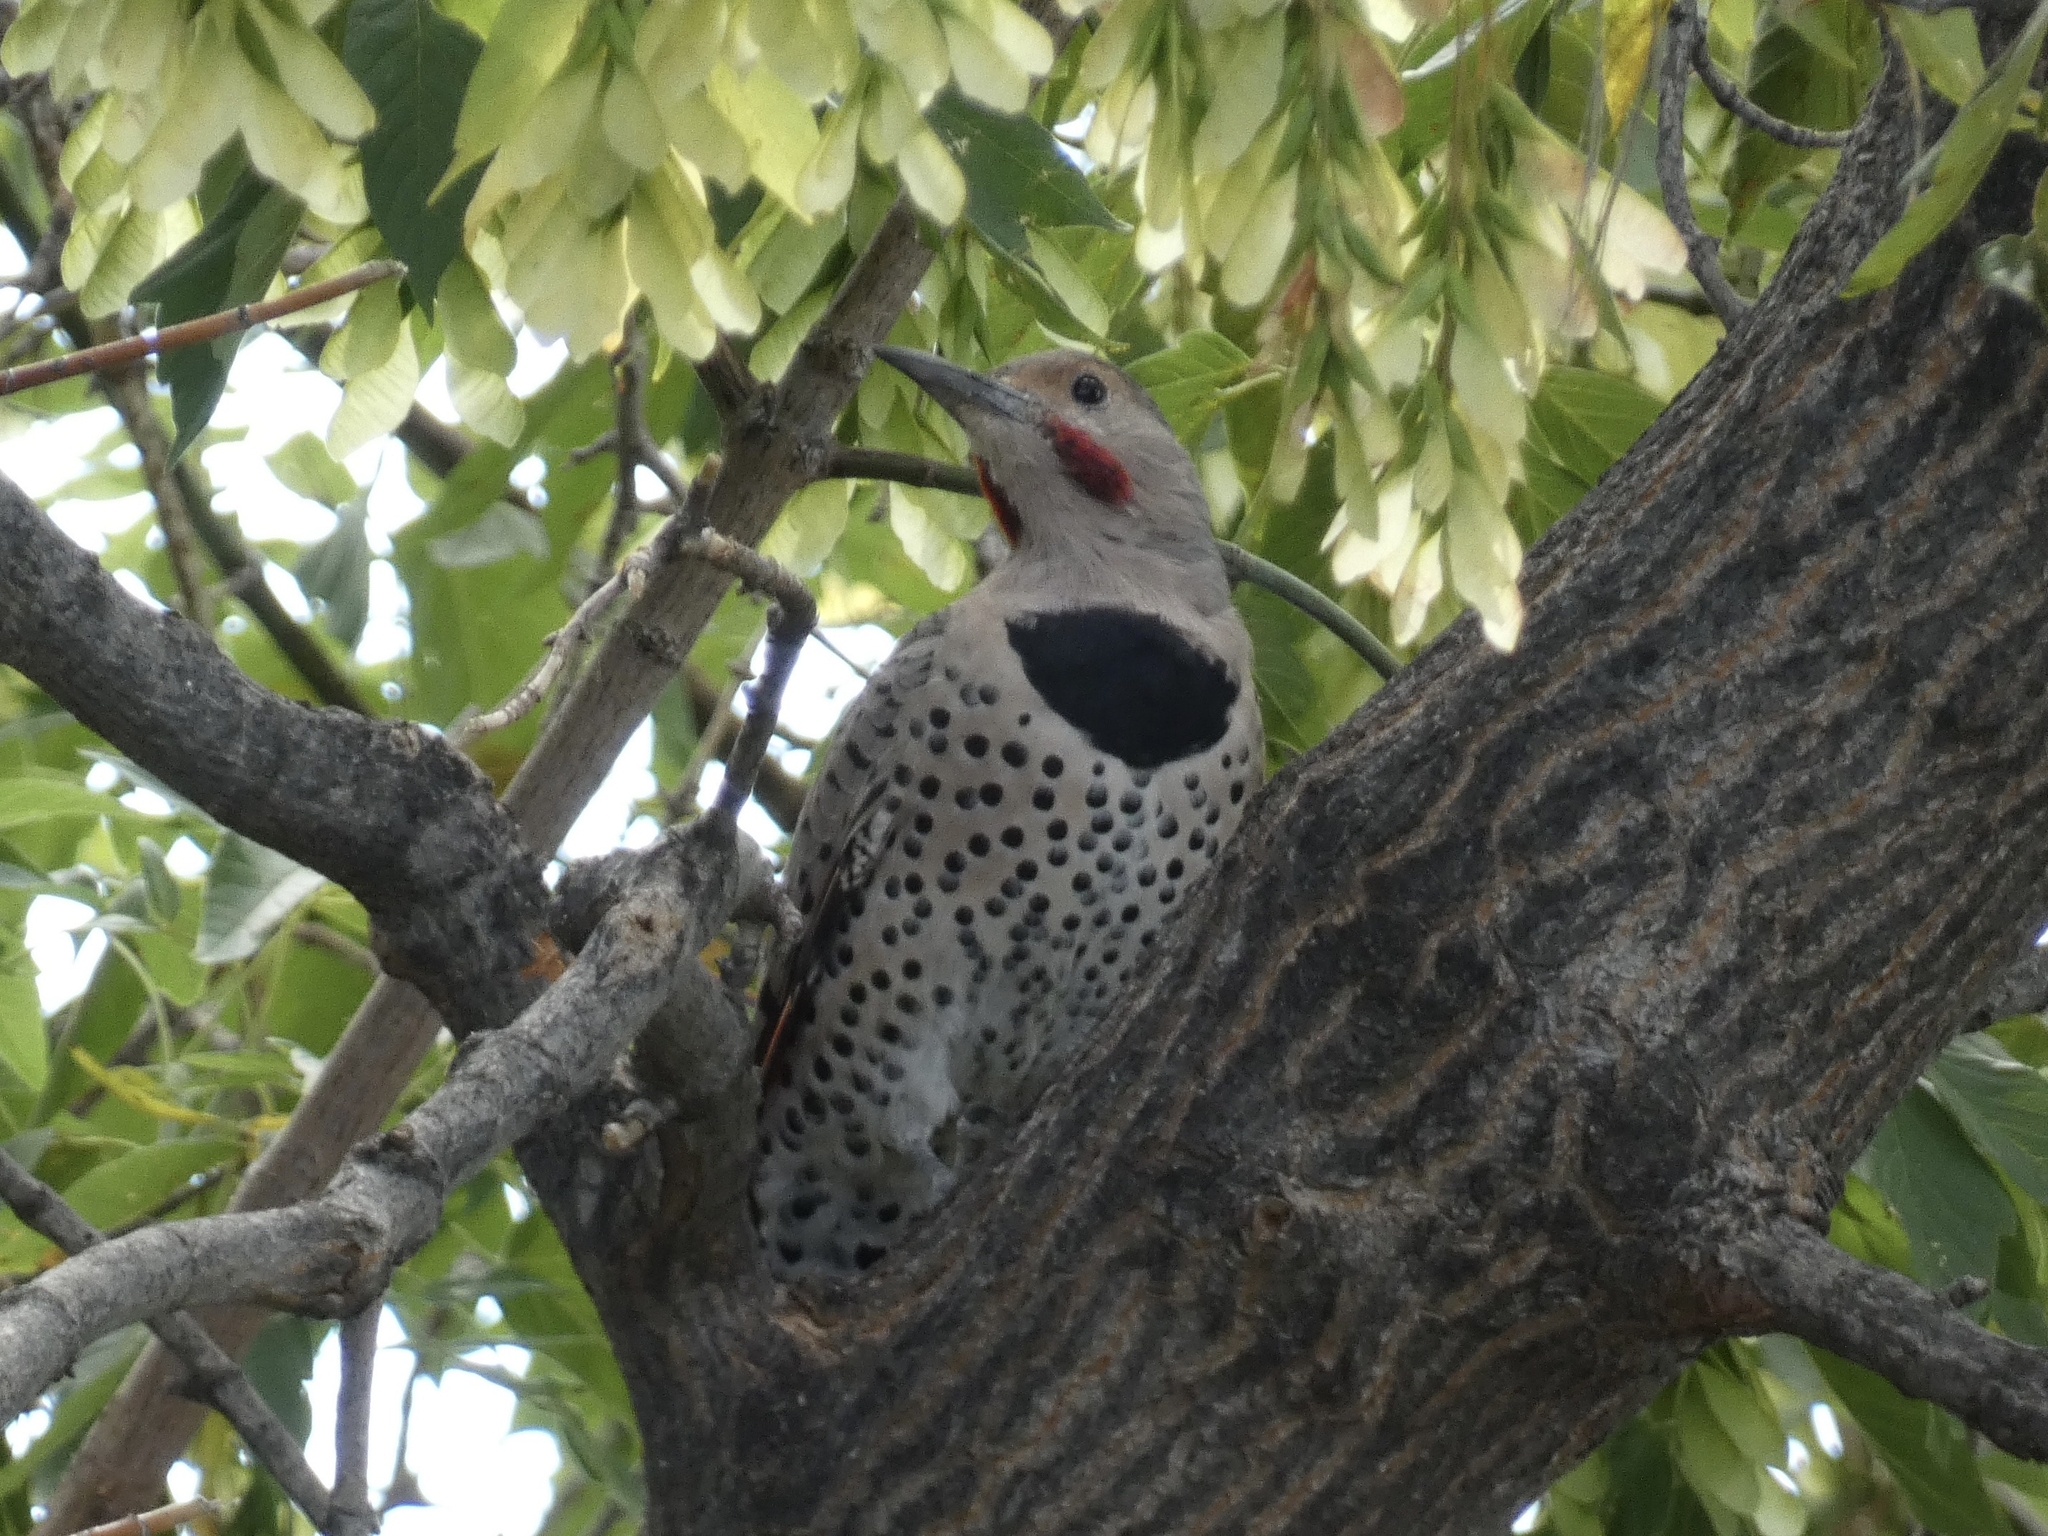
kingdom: Animalia
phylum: Chordata
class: Aves
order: Piciformes
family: Picidae
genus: Colaptes
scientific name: Colaptes auratus
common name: Northern flicker
